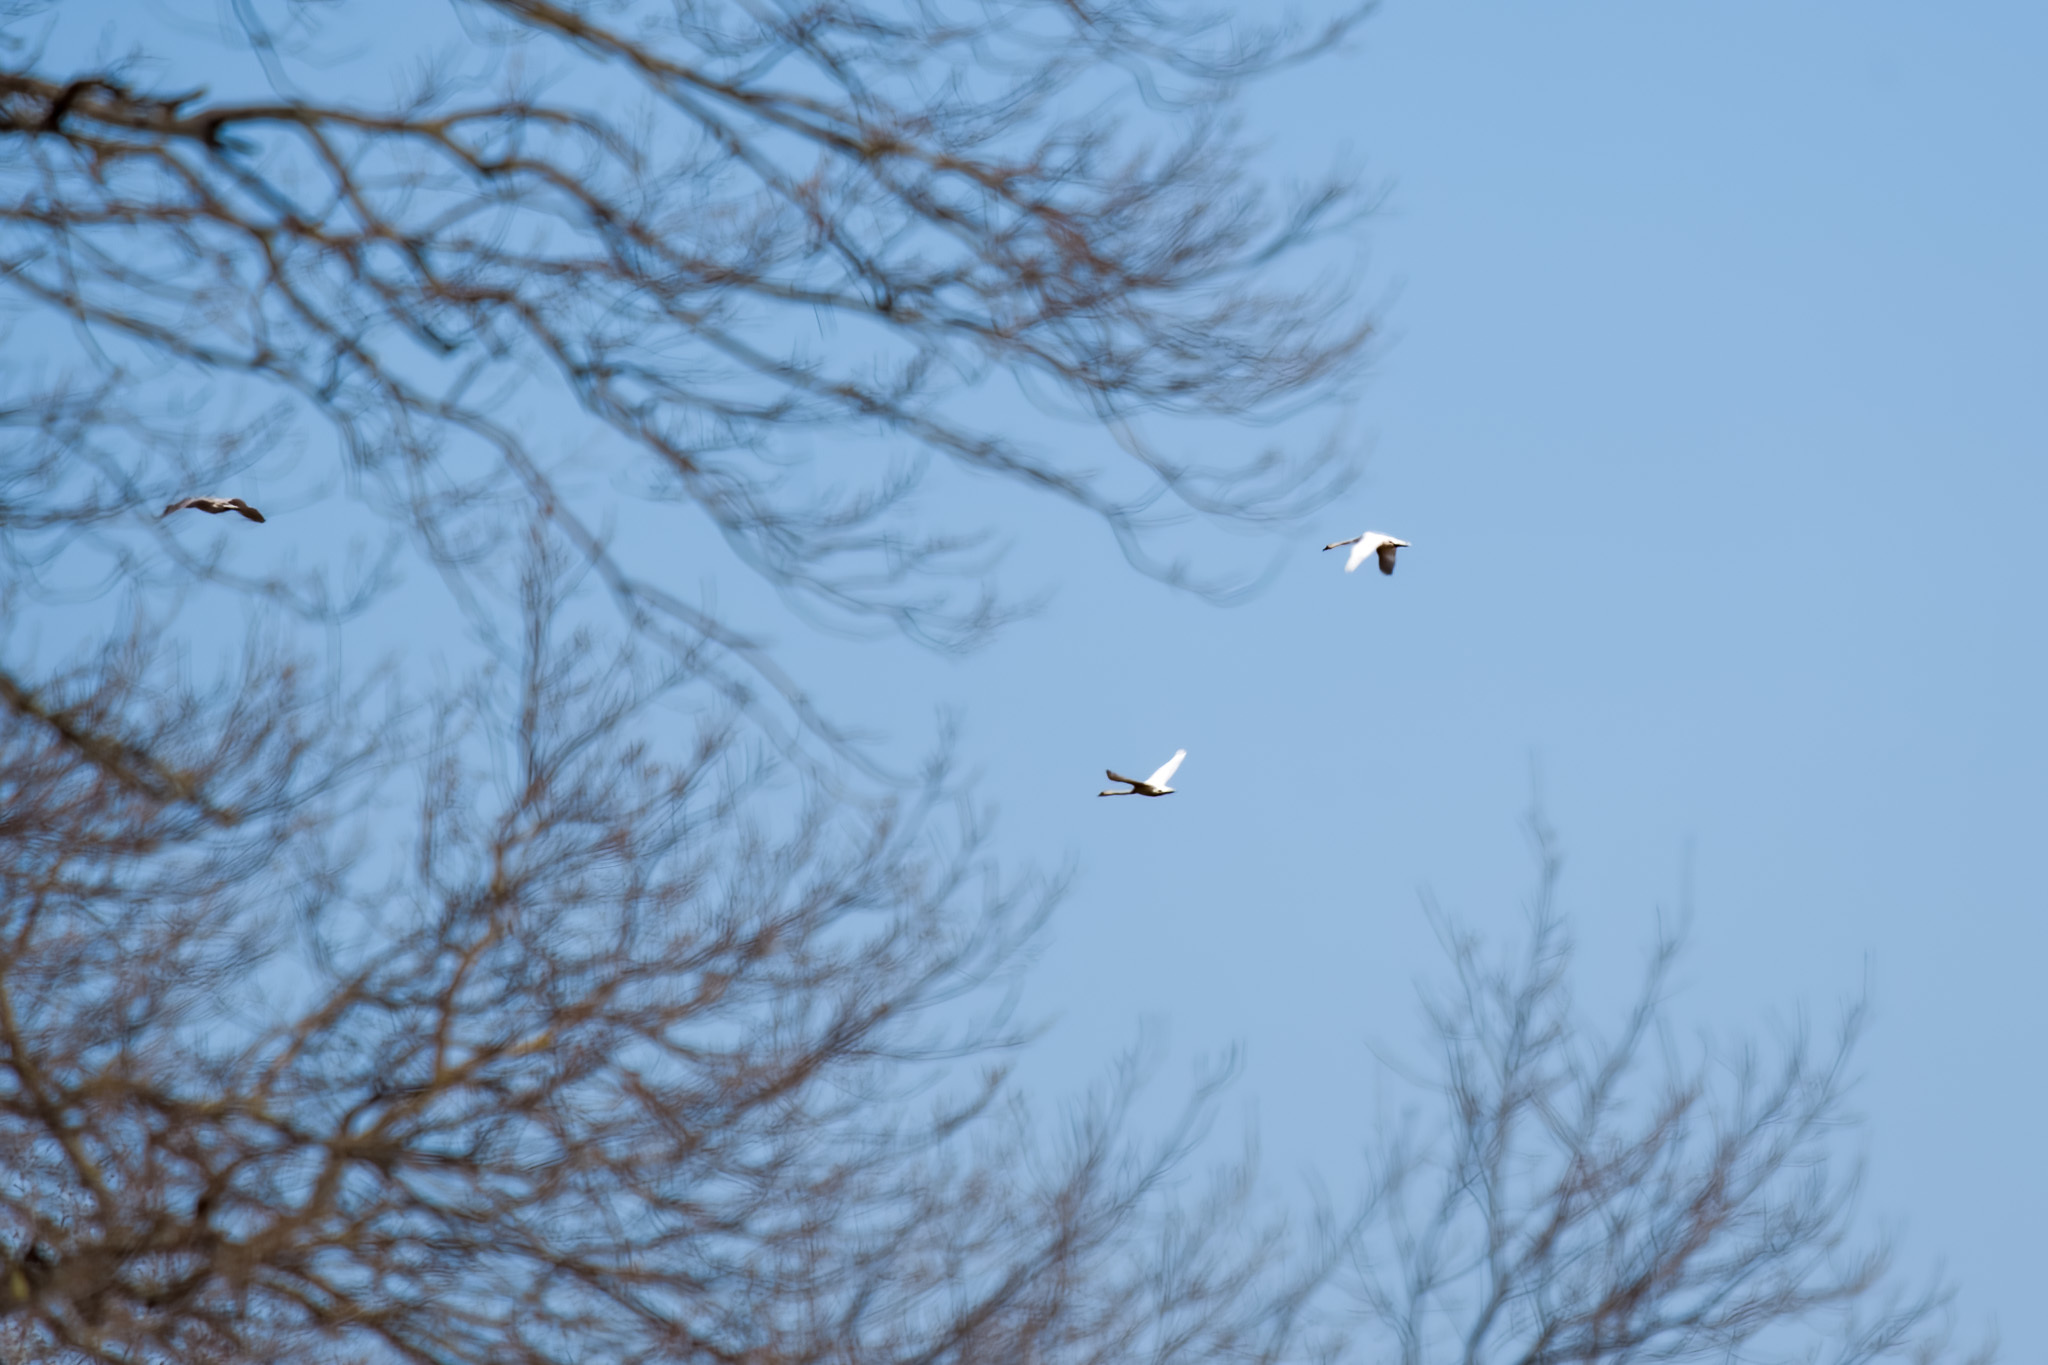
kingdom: Animalia
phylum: Chordata
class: Aves
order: Anseriformes
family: Anatidae
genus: Cygnus
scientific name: Cygnus olor
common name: Mute swan
